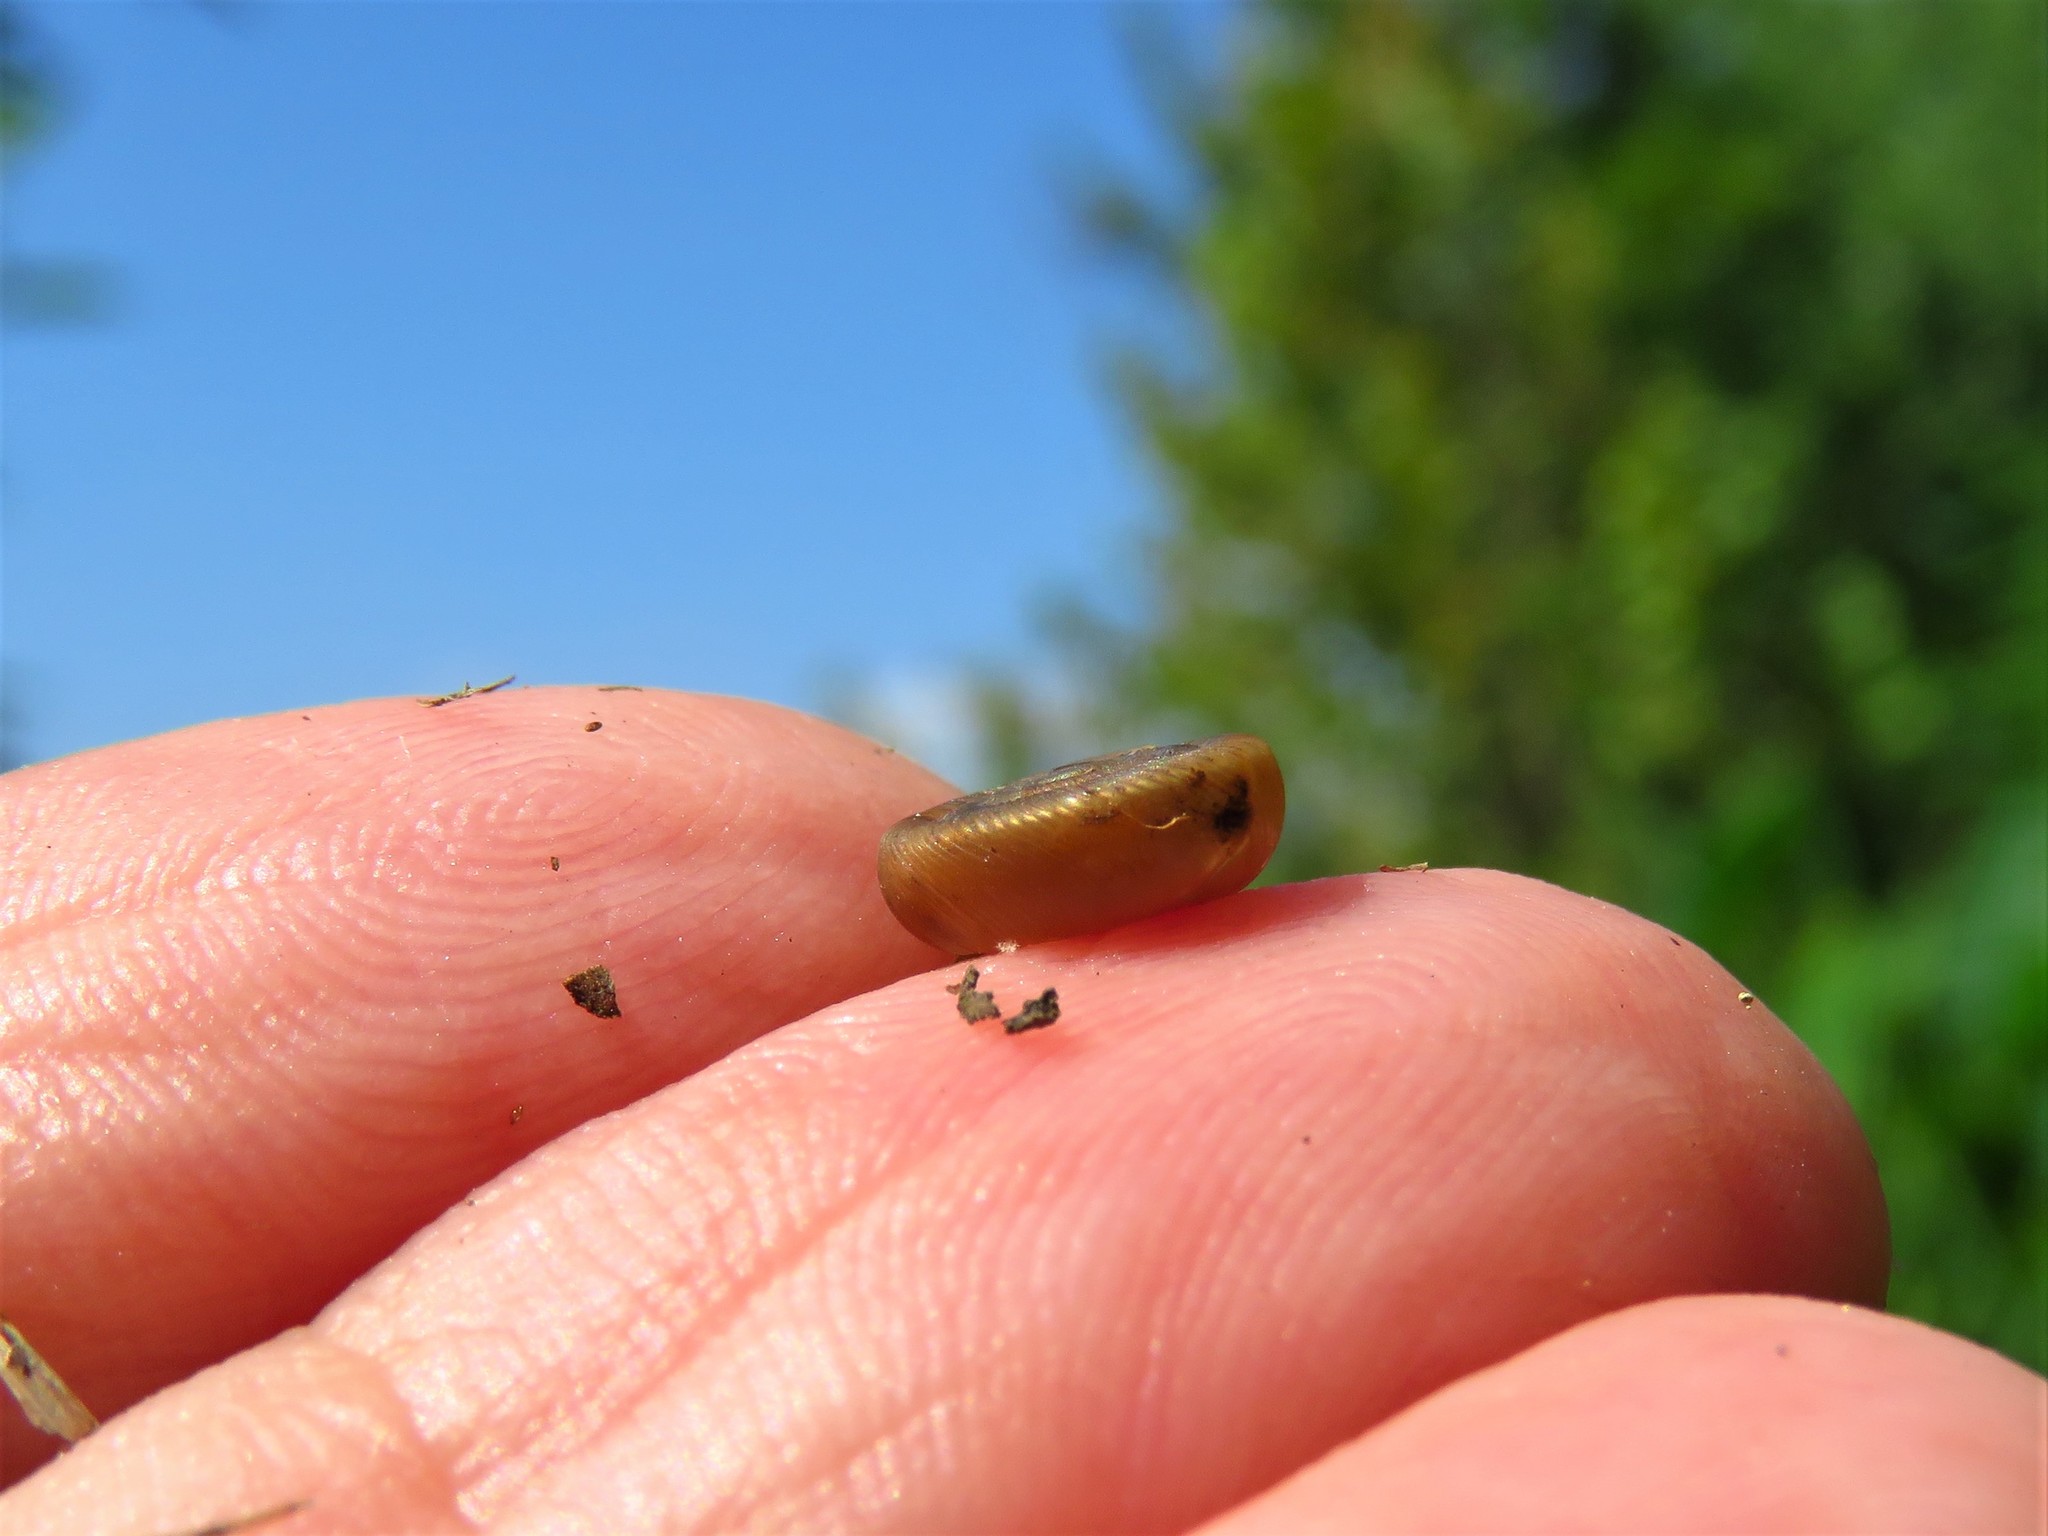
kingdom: Animalia
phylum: Mollusca
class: Gastropoda
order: Stylommatophora
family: Polygyridae
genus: Polygyra
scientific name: Polygyra cereolus
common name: Southern flatcone snail
